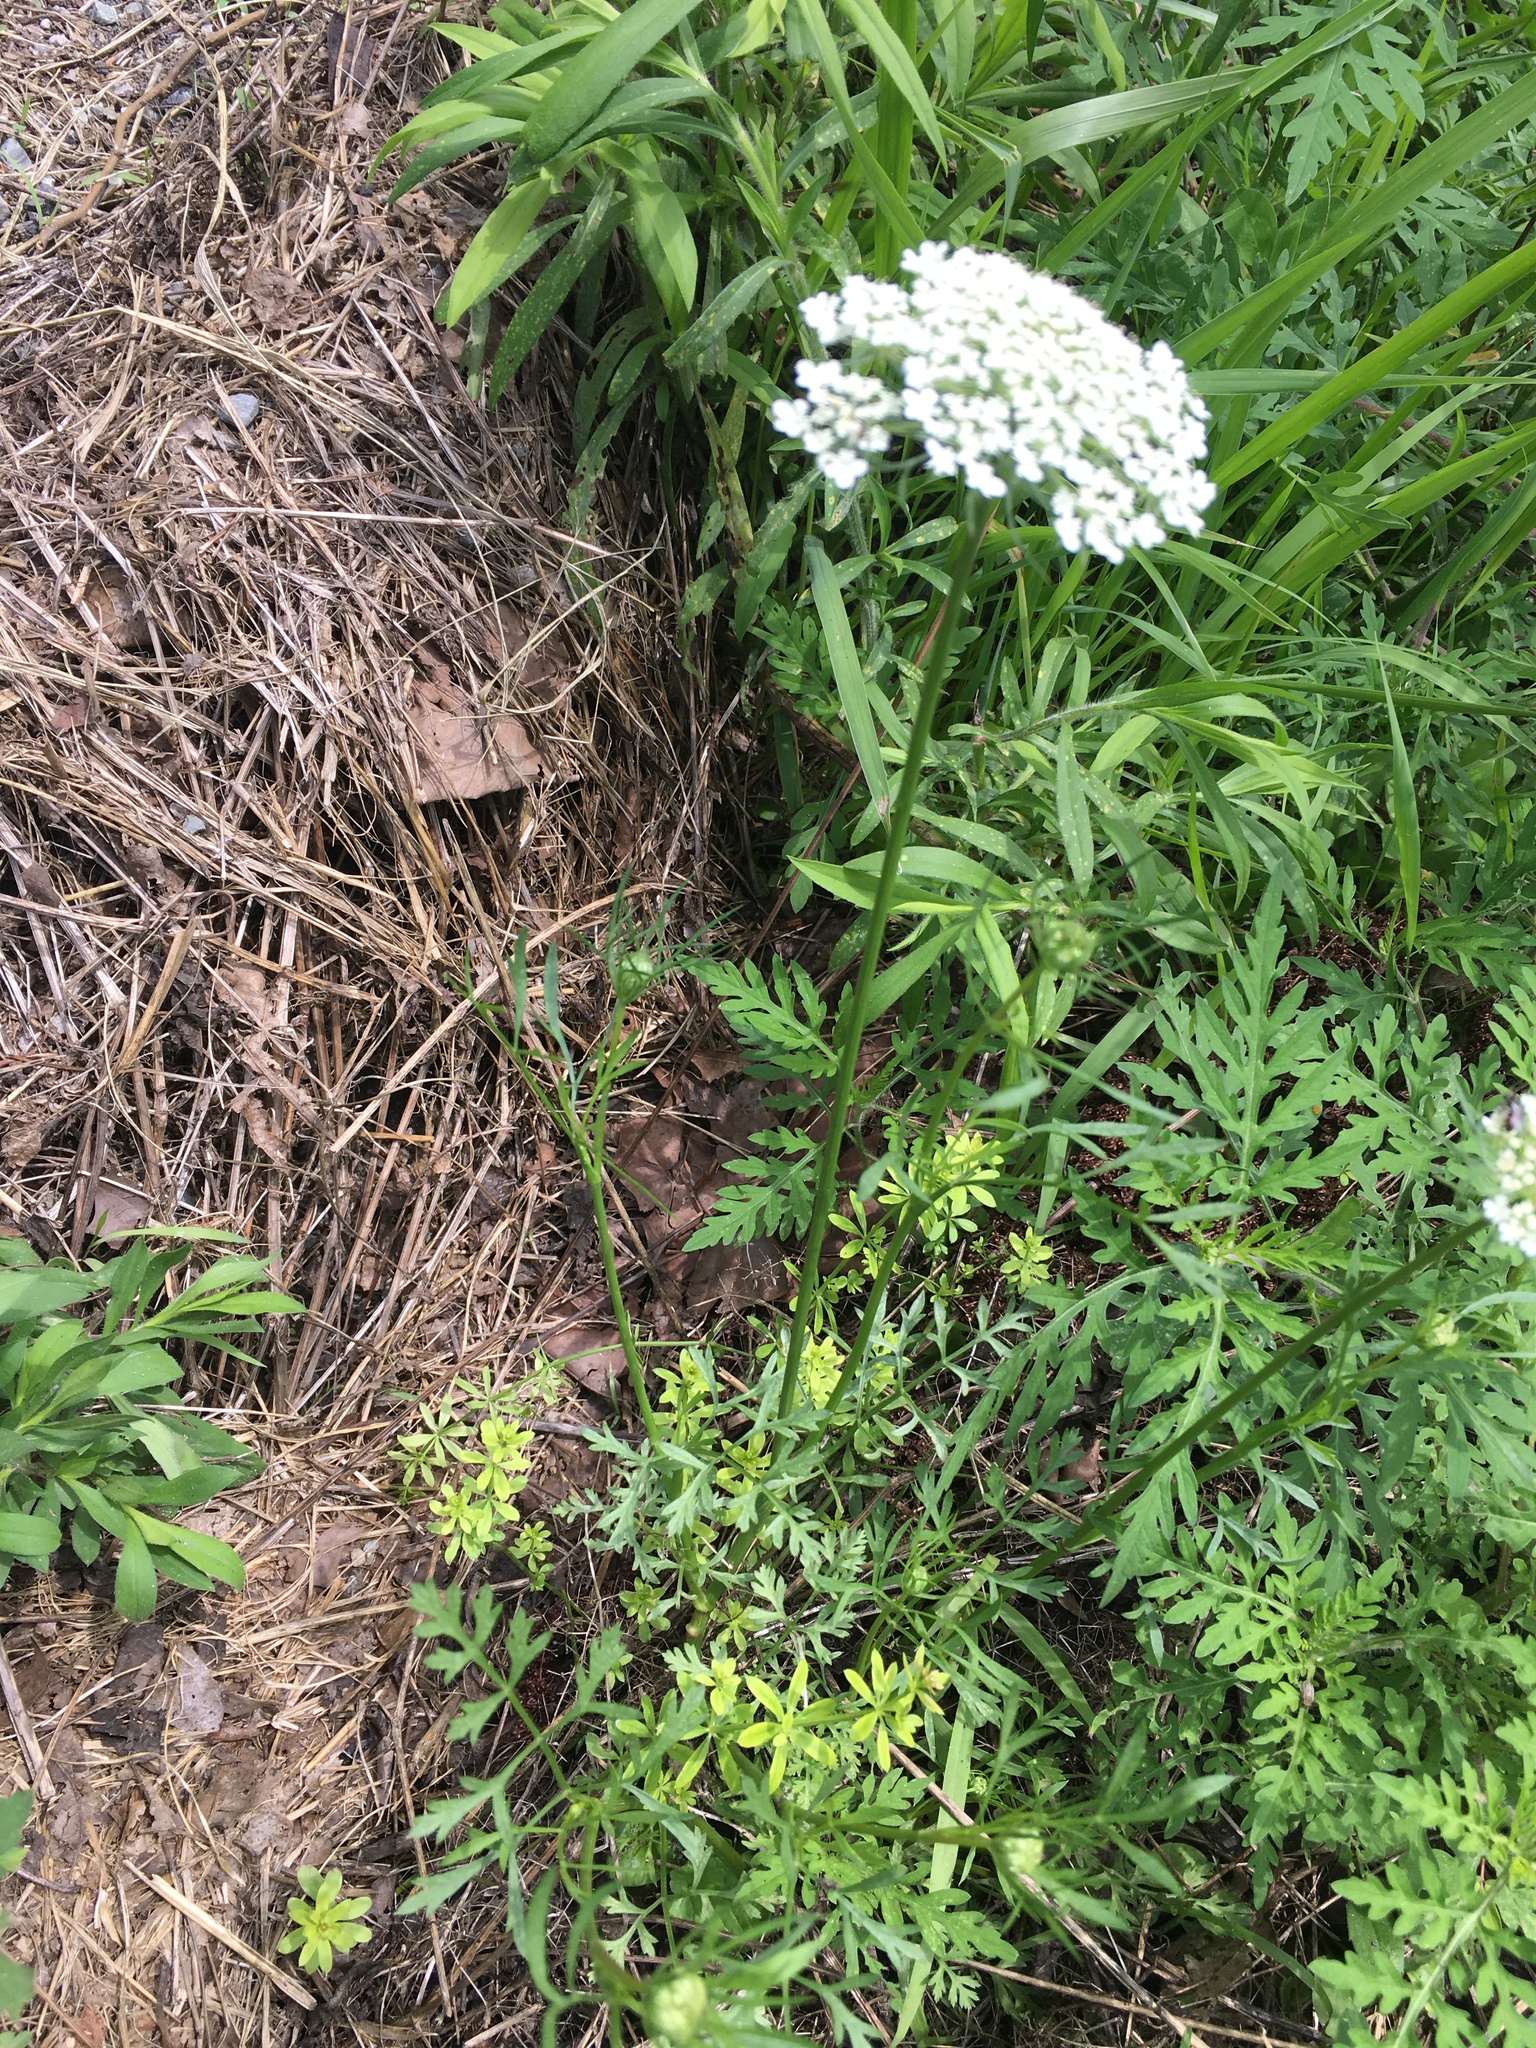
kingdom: Plantae
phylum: Tracheophyta
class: Magnoliopsida
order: Apiales
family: Apiaceae
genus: Daucus
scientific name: Daucus carota
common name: Wild carrot
